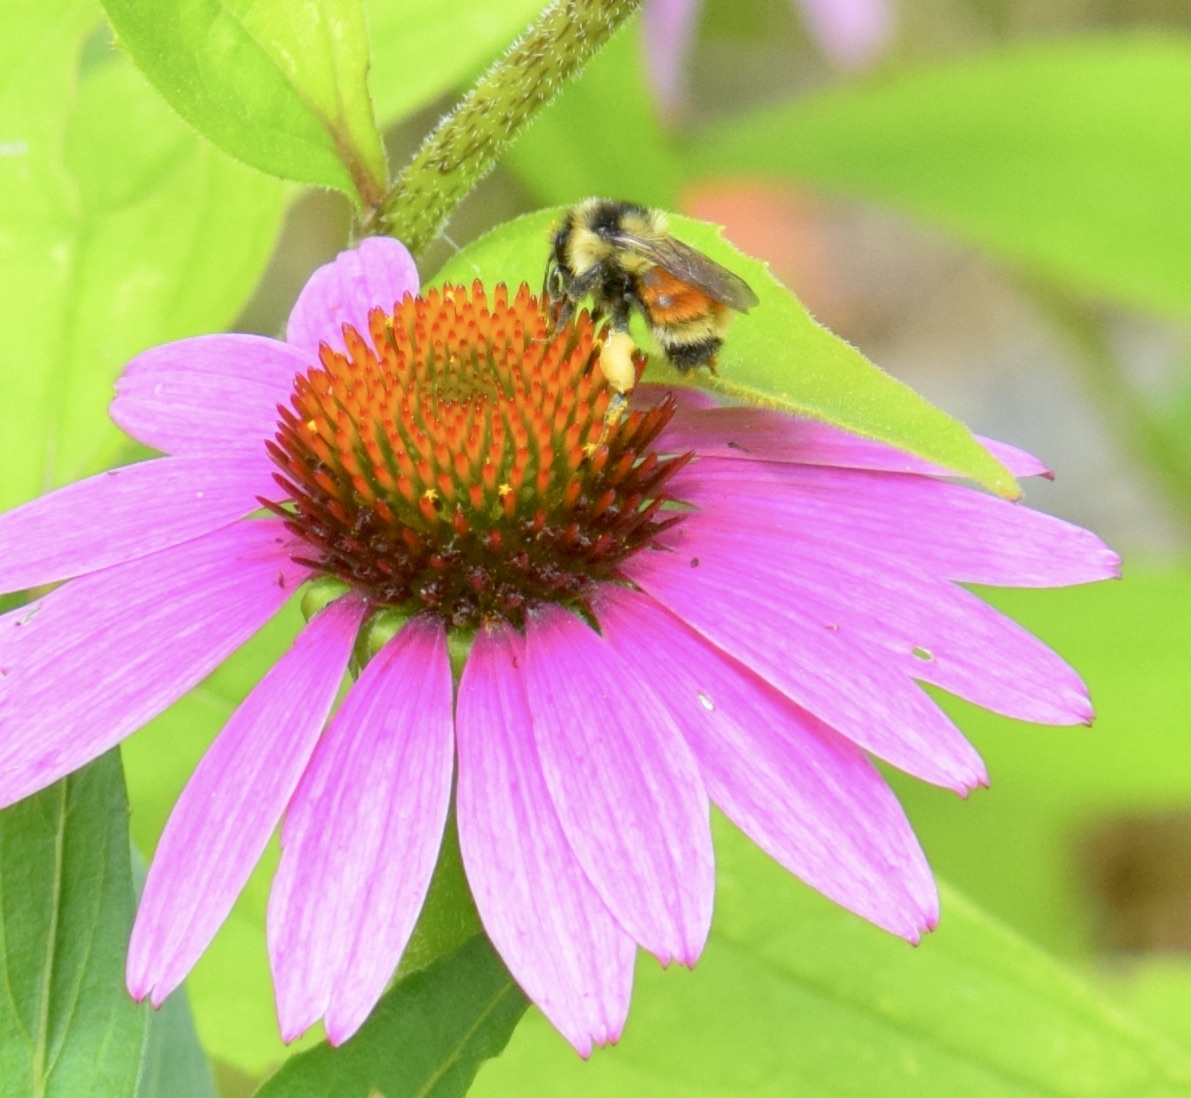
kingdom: Animalia
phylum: Arthropoda
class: Insecta
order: Hymenoptera
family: Apidae
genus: Bombus
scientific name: Bombus ternarius
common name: Tri-colored bumble bee
